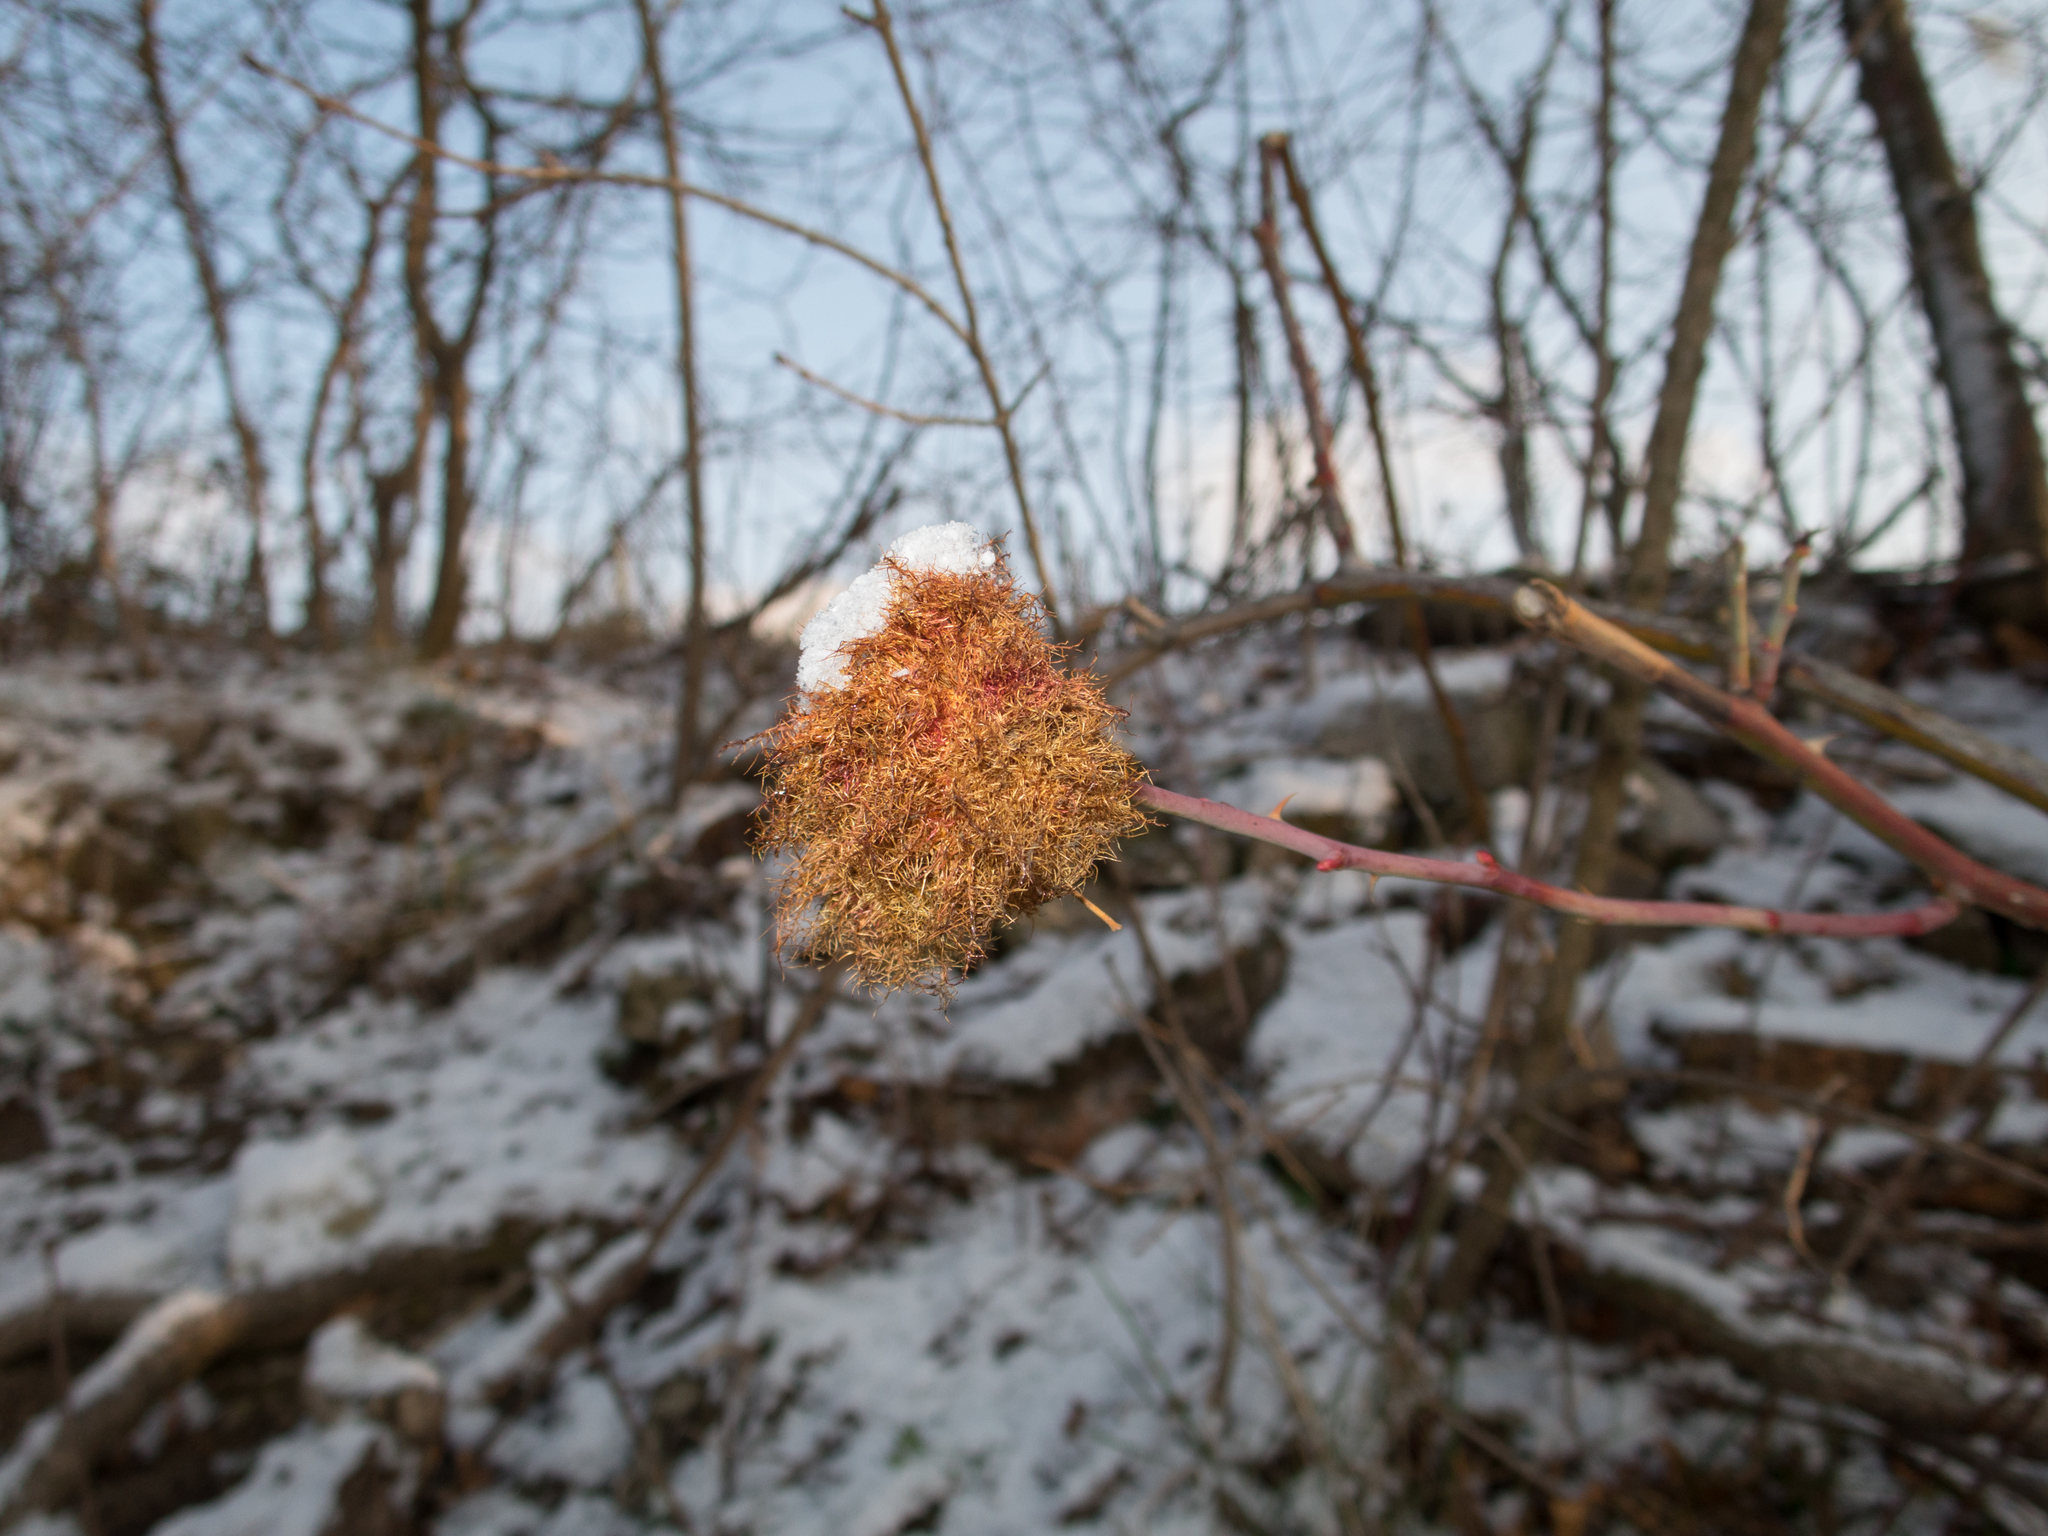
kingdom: Animalia
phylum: Arthropoda
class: Insecta
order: Hymenoptera
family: Cynipidae
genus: Diplolepis
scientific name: Diplolepis rosae
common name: Bedeguar gall
